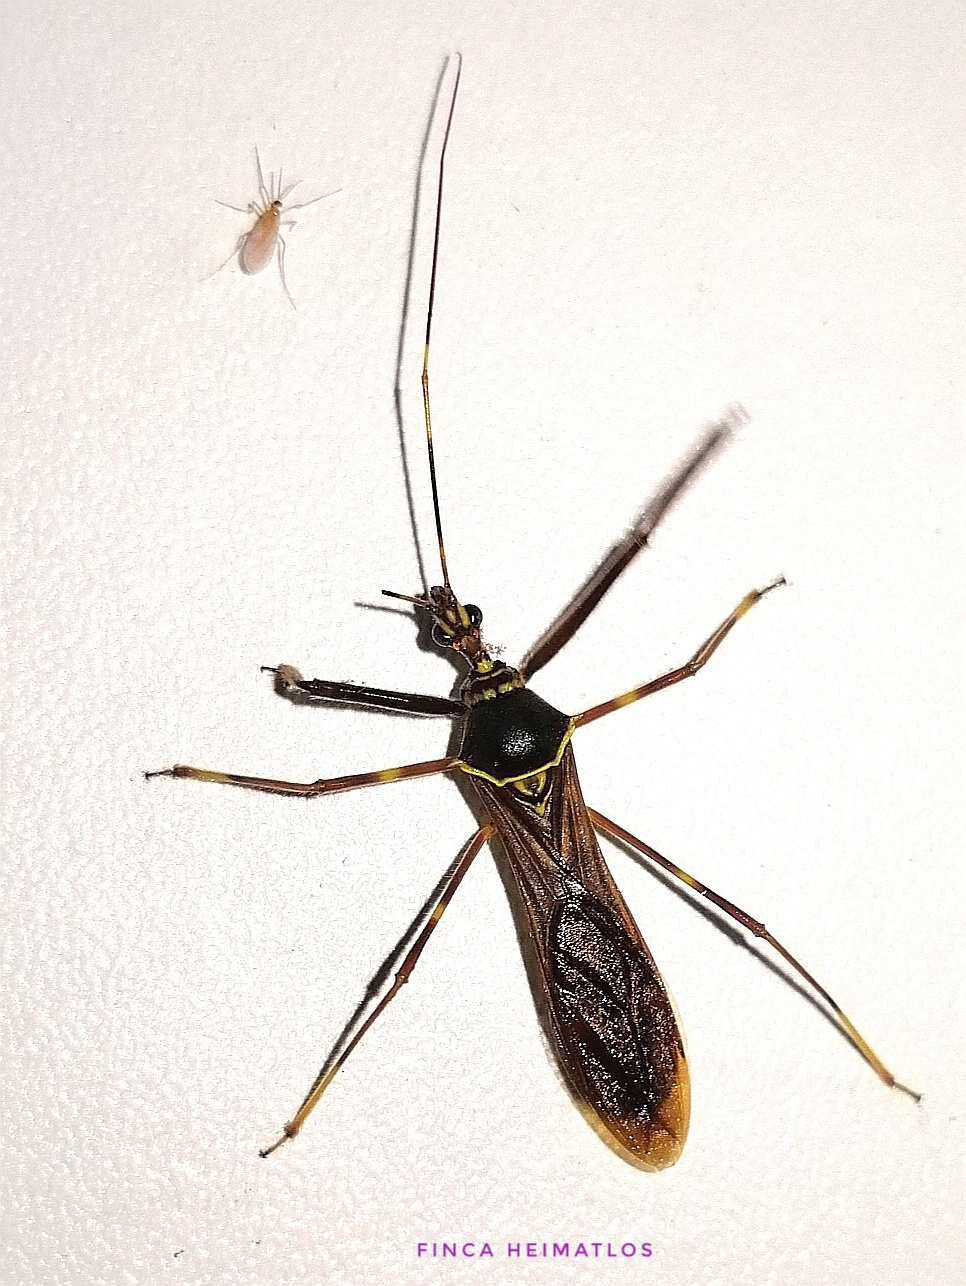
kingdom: Animalia
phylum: Arthropoda
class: Insecta
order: Hemiptera
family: Reduviidae
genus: Isocondylus
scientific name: Isocondylus elongatus
